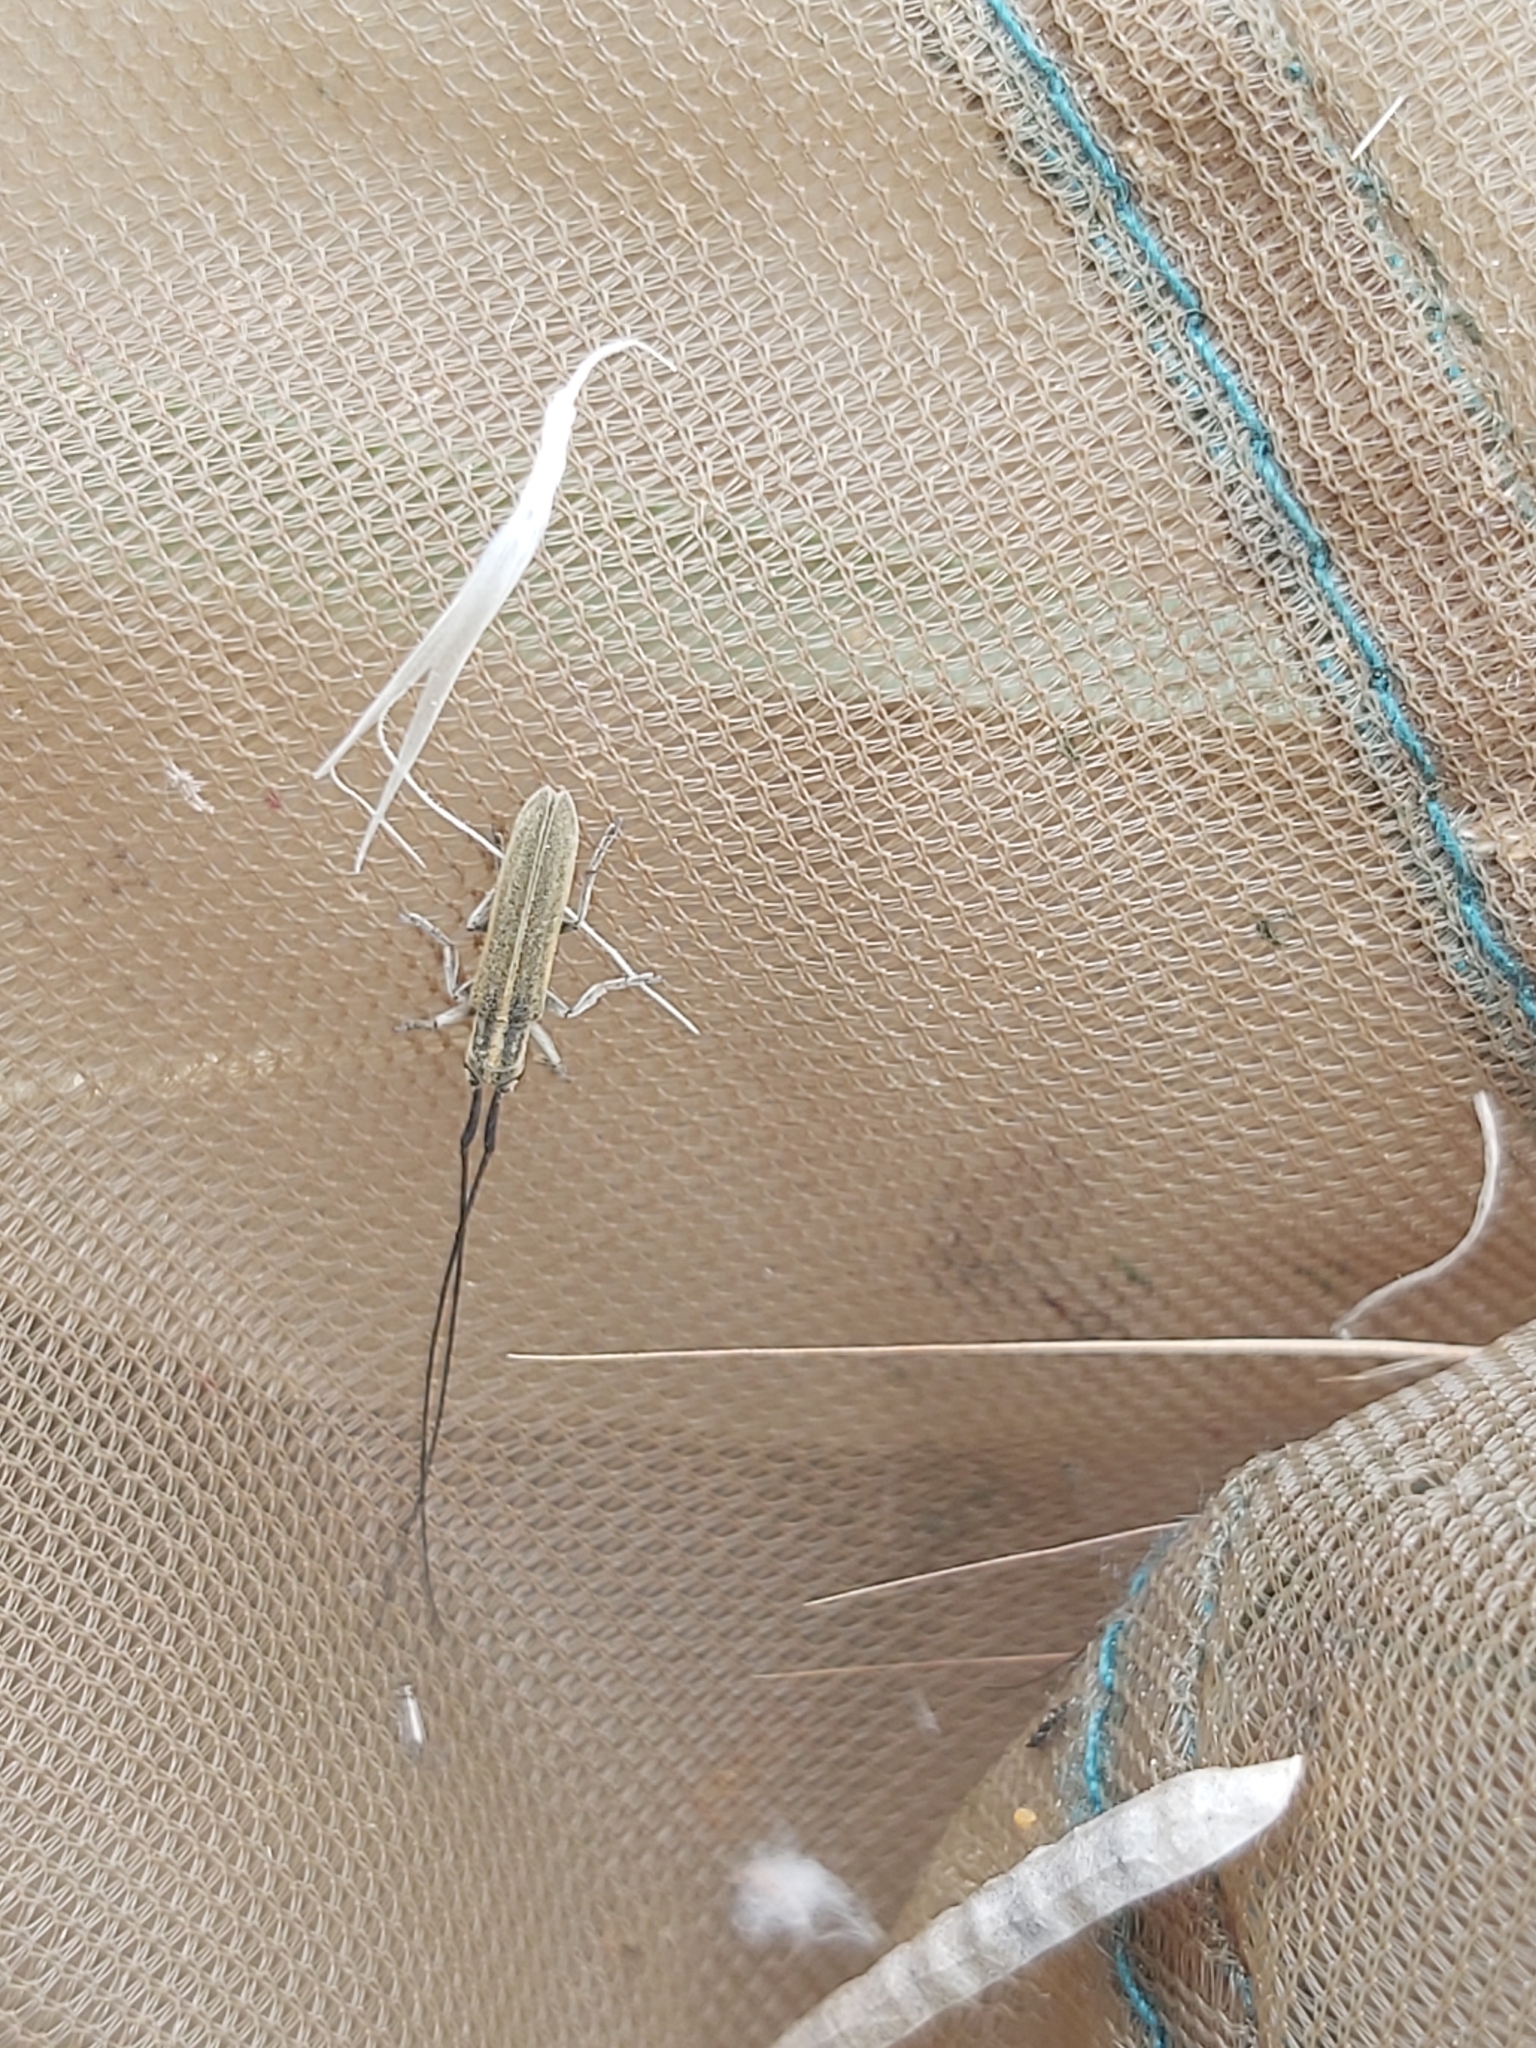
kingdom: Animalia
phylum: Arthropoda
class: Insecta
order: Coleoptera
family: Cerambycidae
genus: Calamobius
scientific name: Calamobius filum
